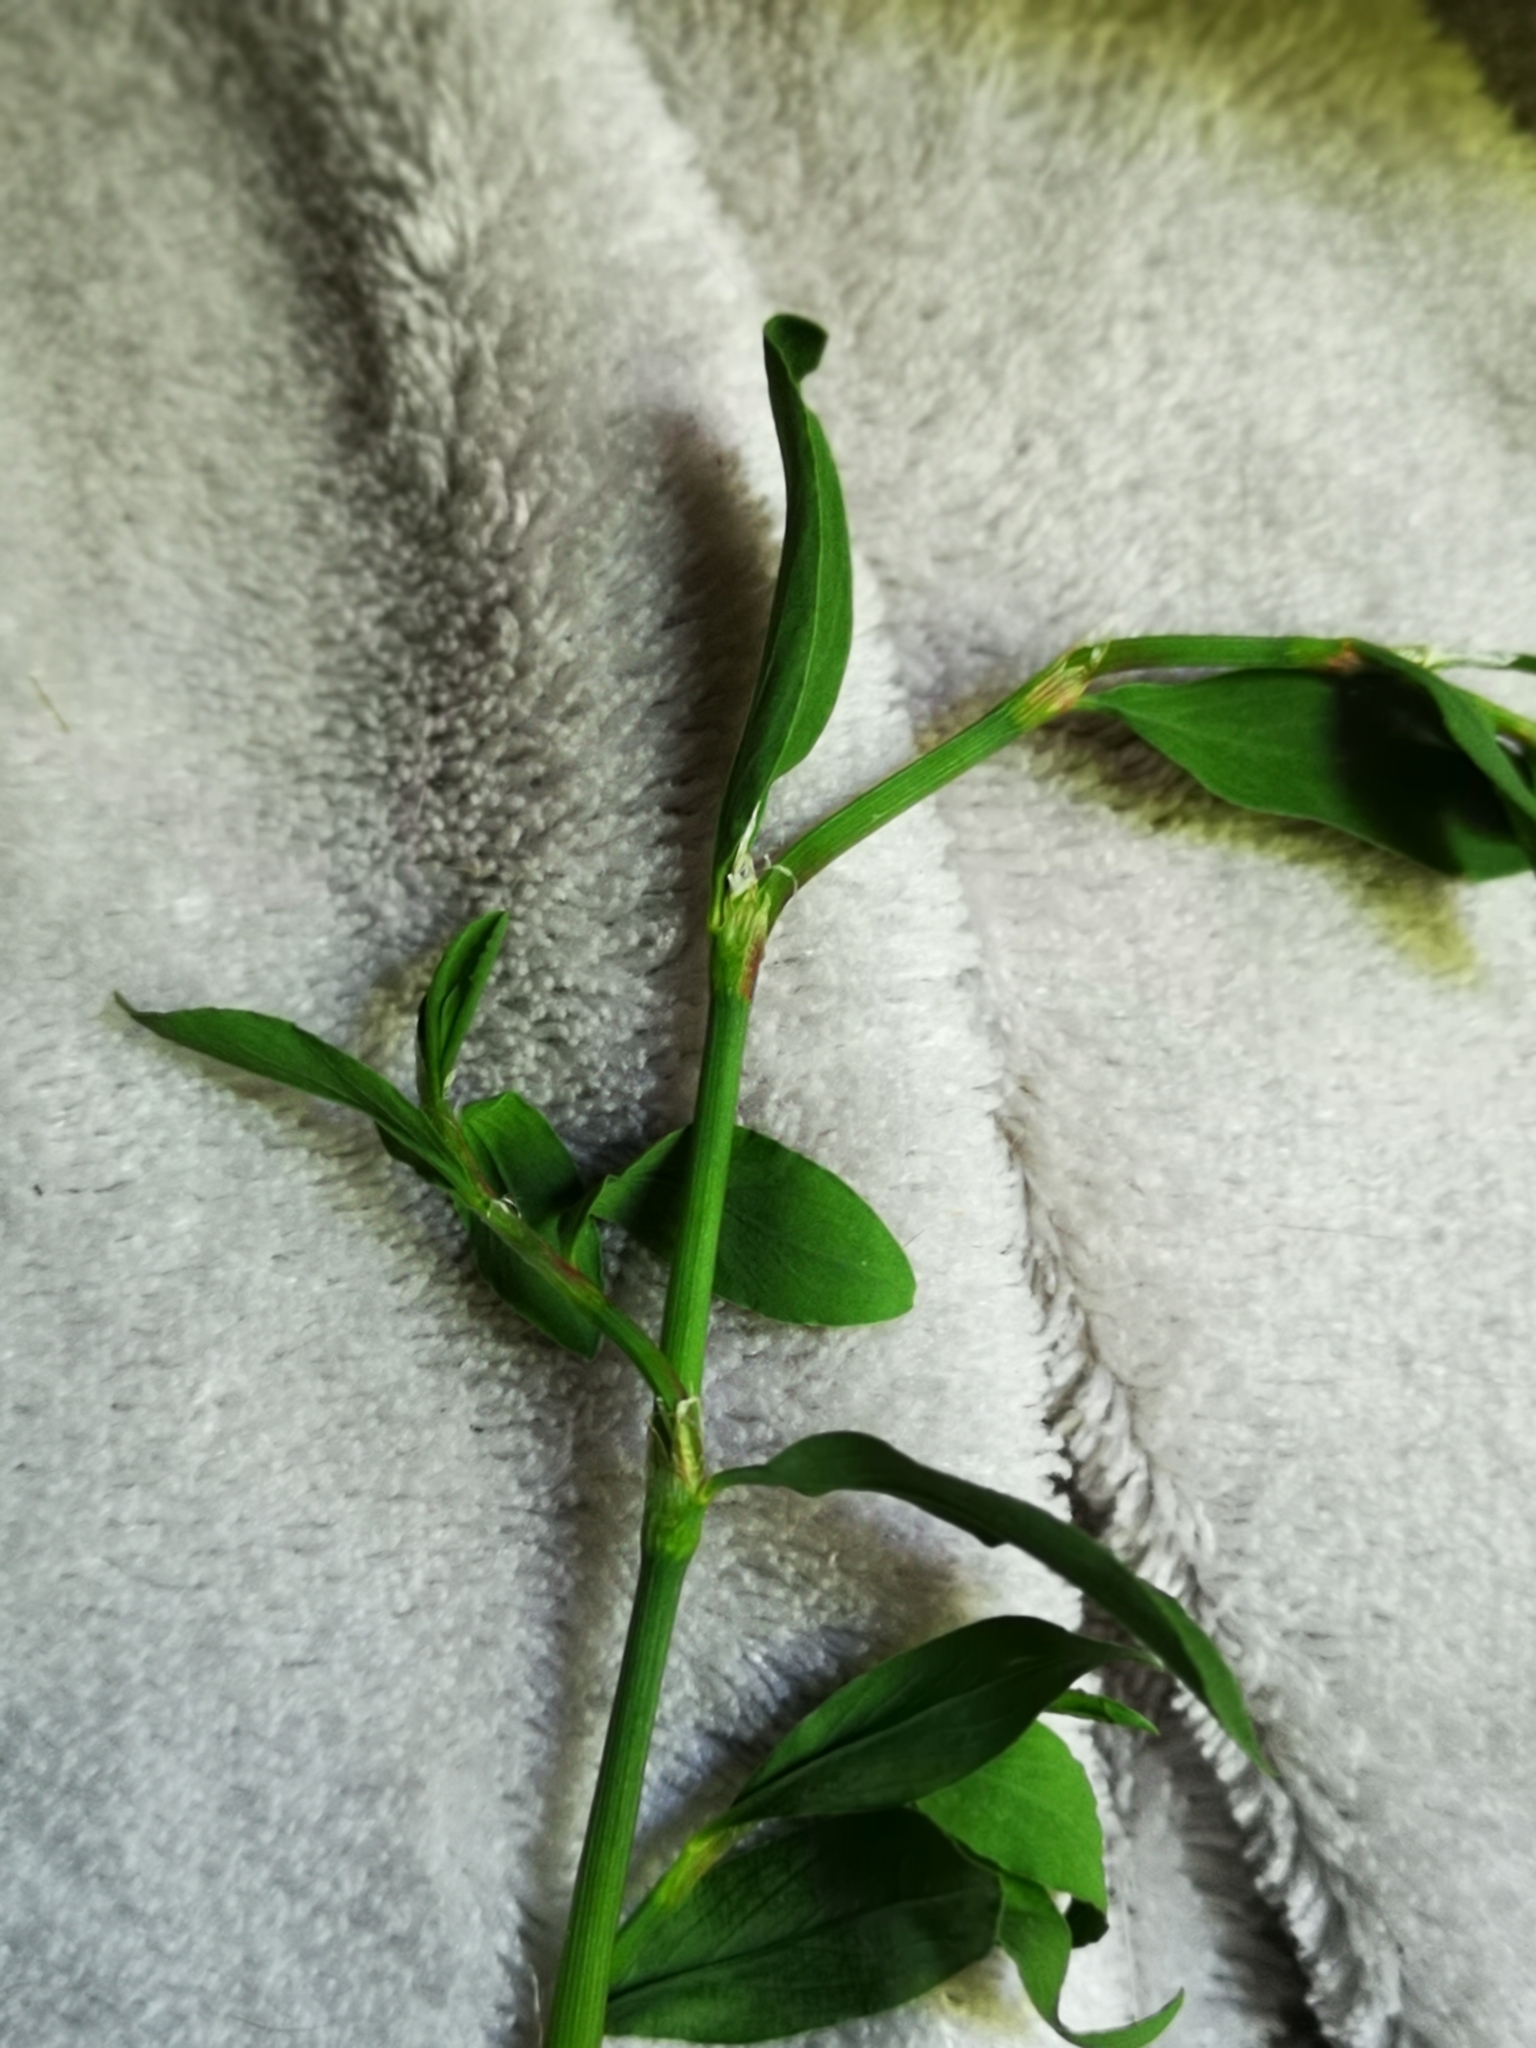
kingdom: Plantae
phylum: Tracheophyta
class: Magnoliopsida
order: Caryophyllales
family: Polygonaceae
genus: Polygonum
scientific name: Polygonum aviculare
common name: Prostrate knotweed
